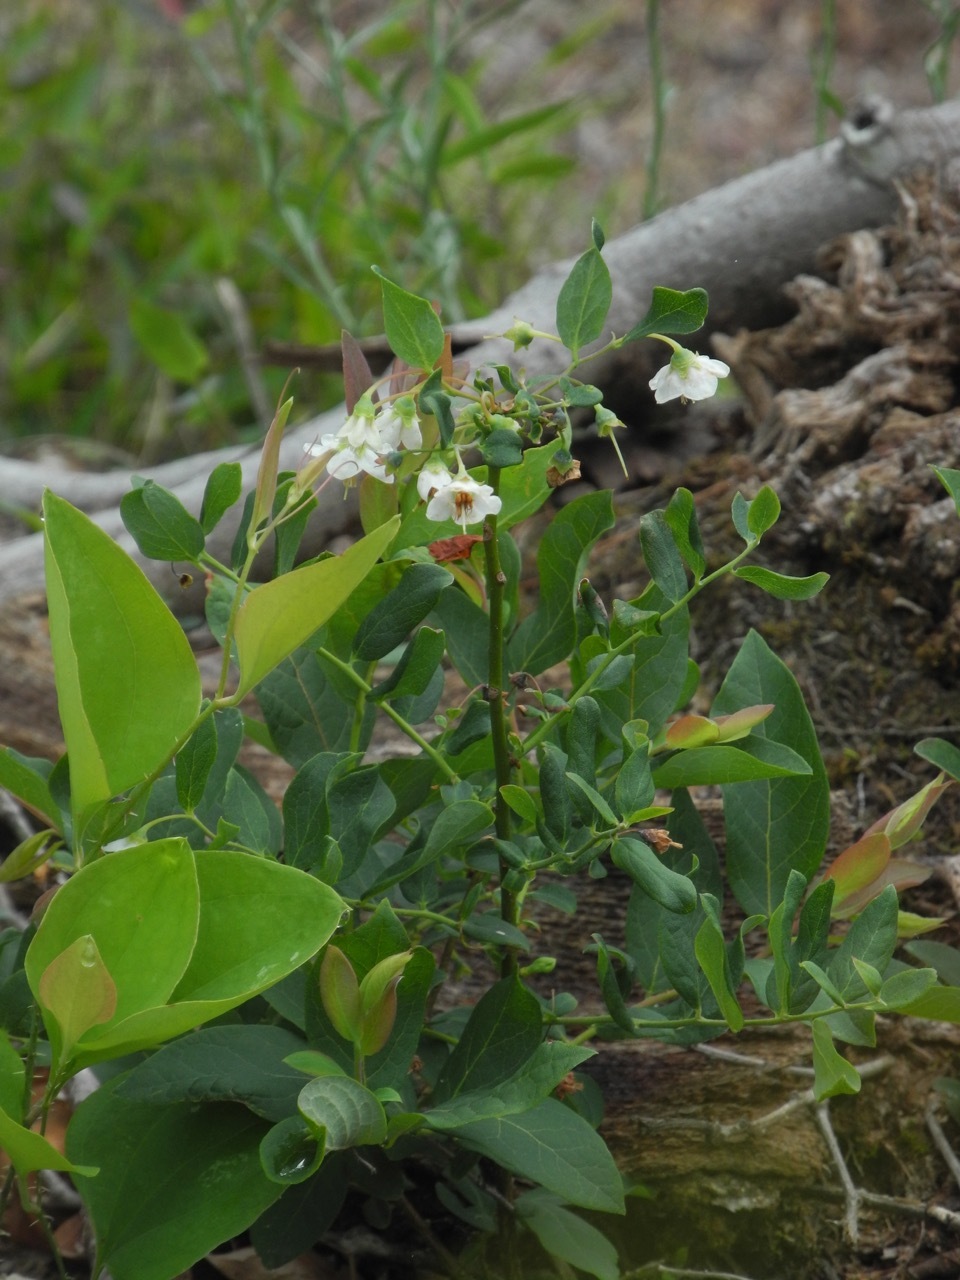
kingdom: Plantae
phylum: Tracheophyta
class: Magnoliopsida
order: Ericales
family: Ericaceae
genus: Vaccinium
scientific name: Vaccinium stamineum
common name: Deerberry
